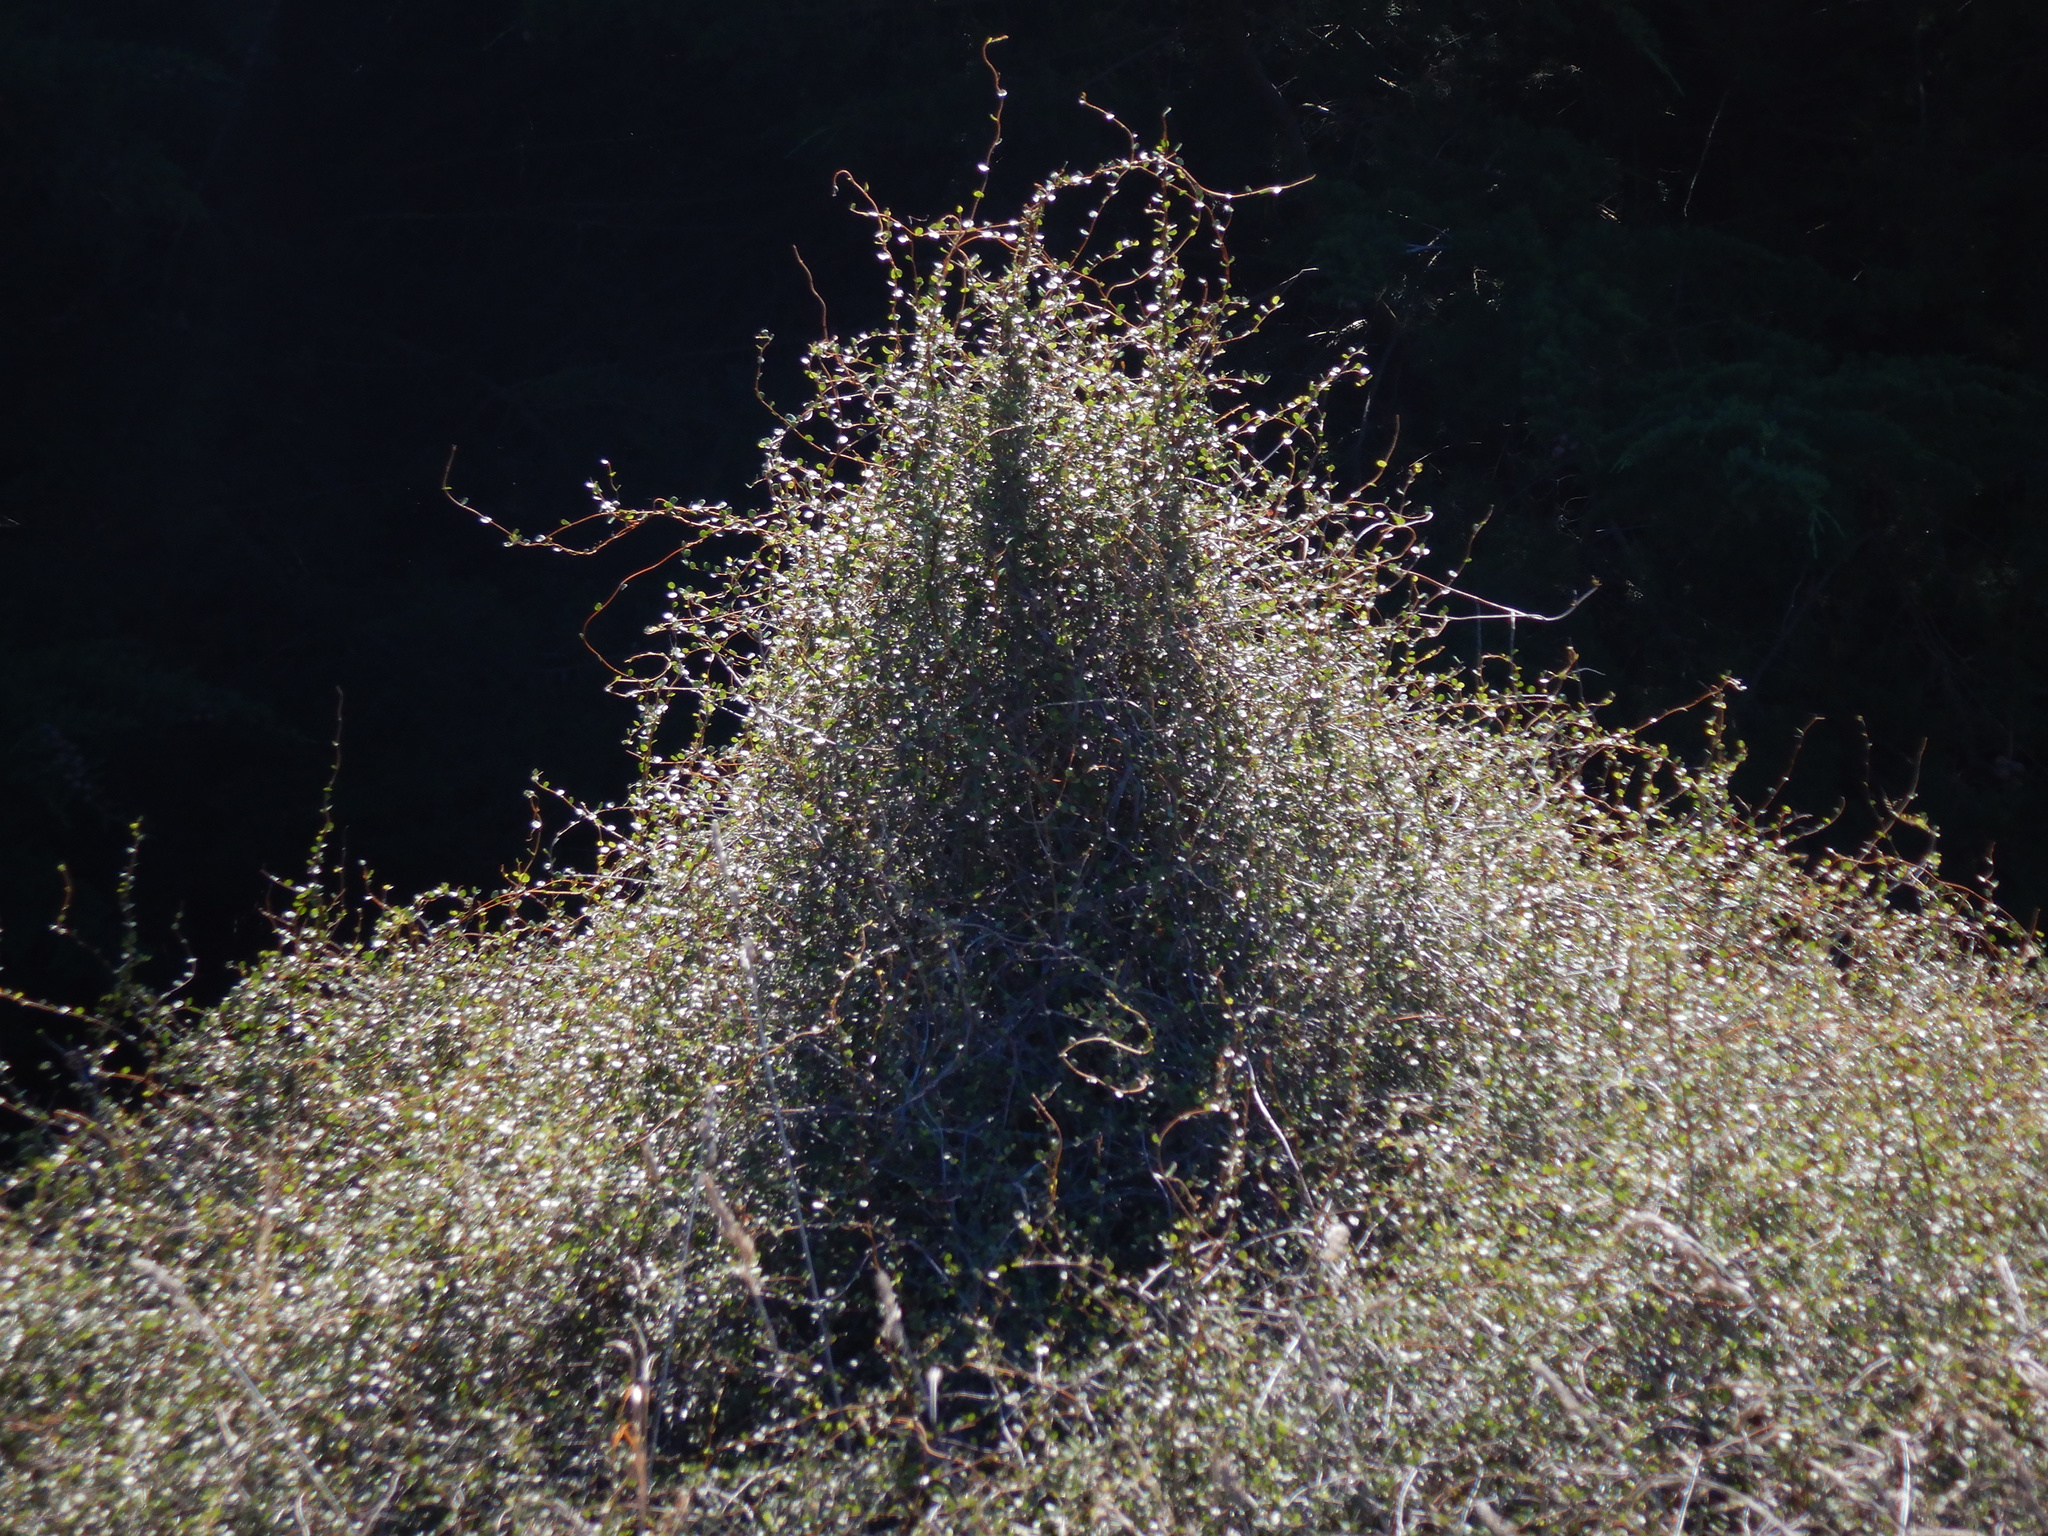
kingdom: Plantae
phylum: Tracheophyta
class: Magnoliopsida
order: Caryophyllales
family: Polygonaceae
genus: Muehlenbeckia
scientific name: Muehlenbeckia complexa
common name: Wireplant
